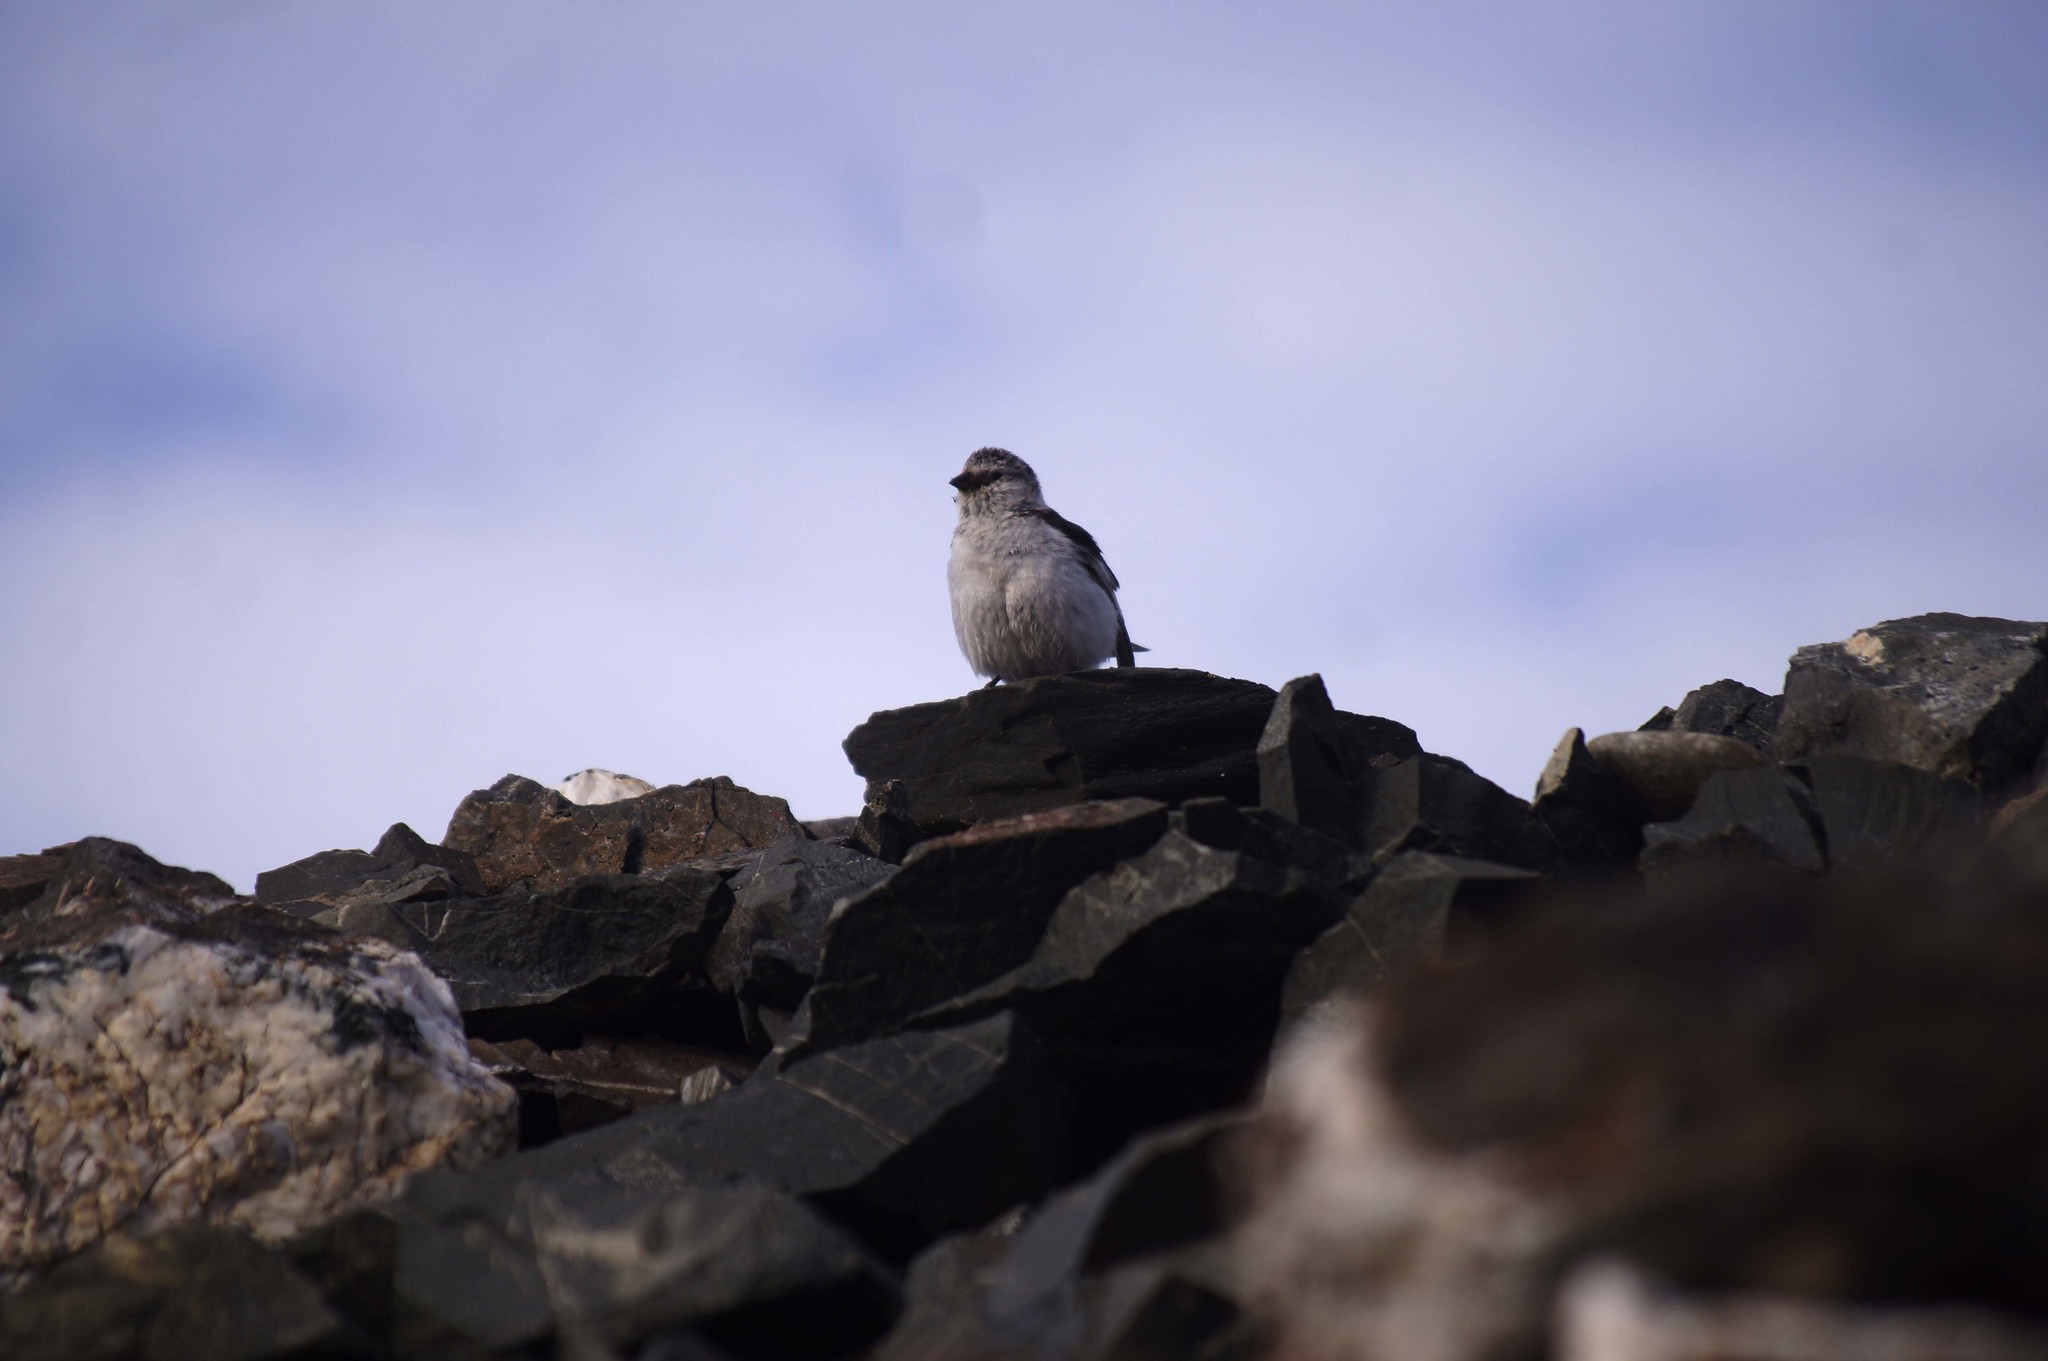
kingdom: Animalia
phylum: Chordata
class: Aves
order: Passeriformes
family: Calcariidae
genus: Plectrophenax
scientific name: Plectrophenax nivalis
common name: Snow bunting
